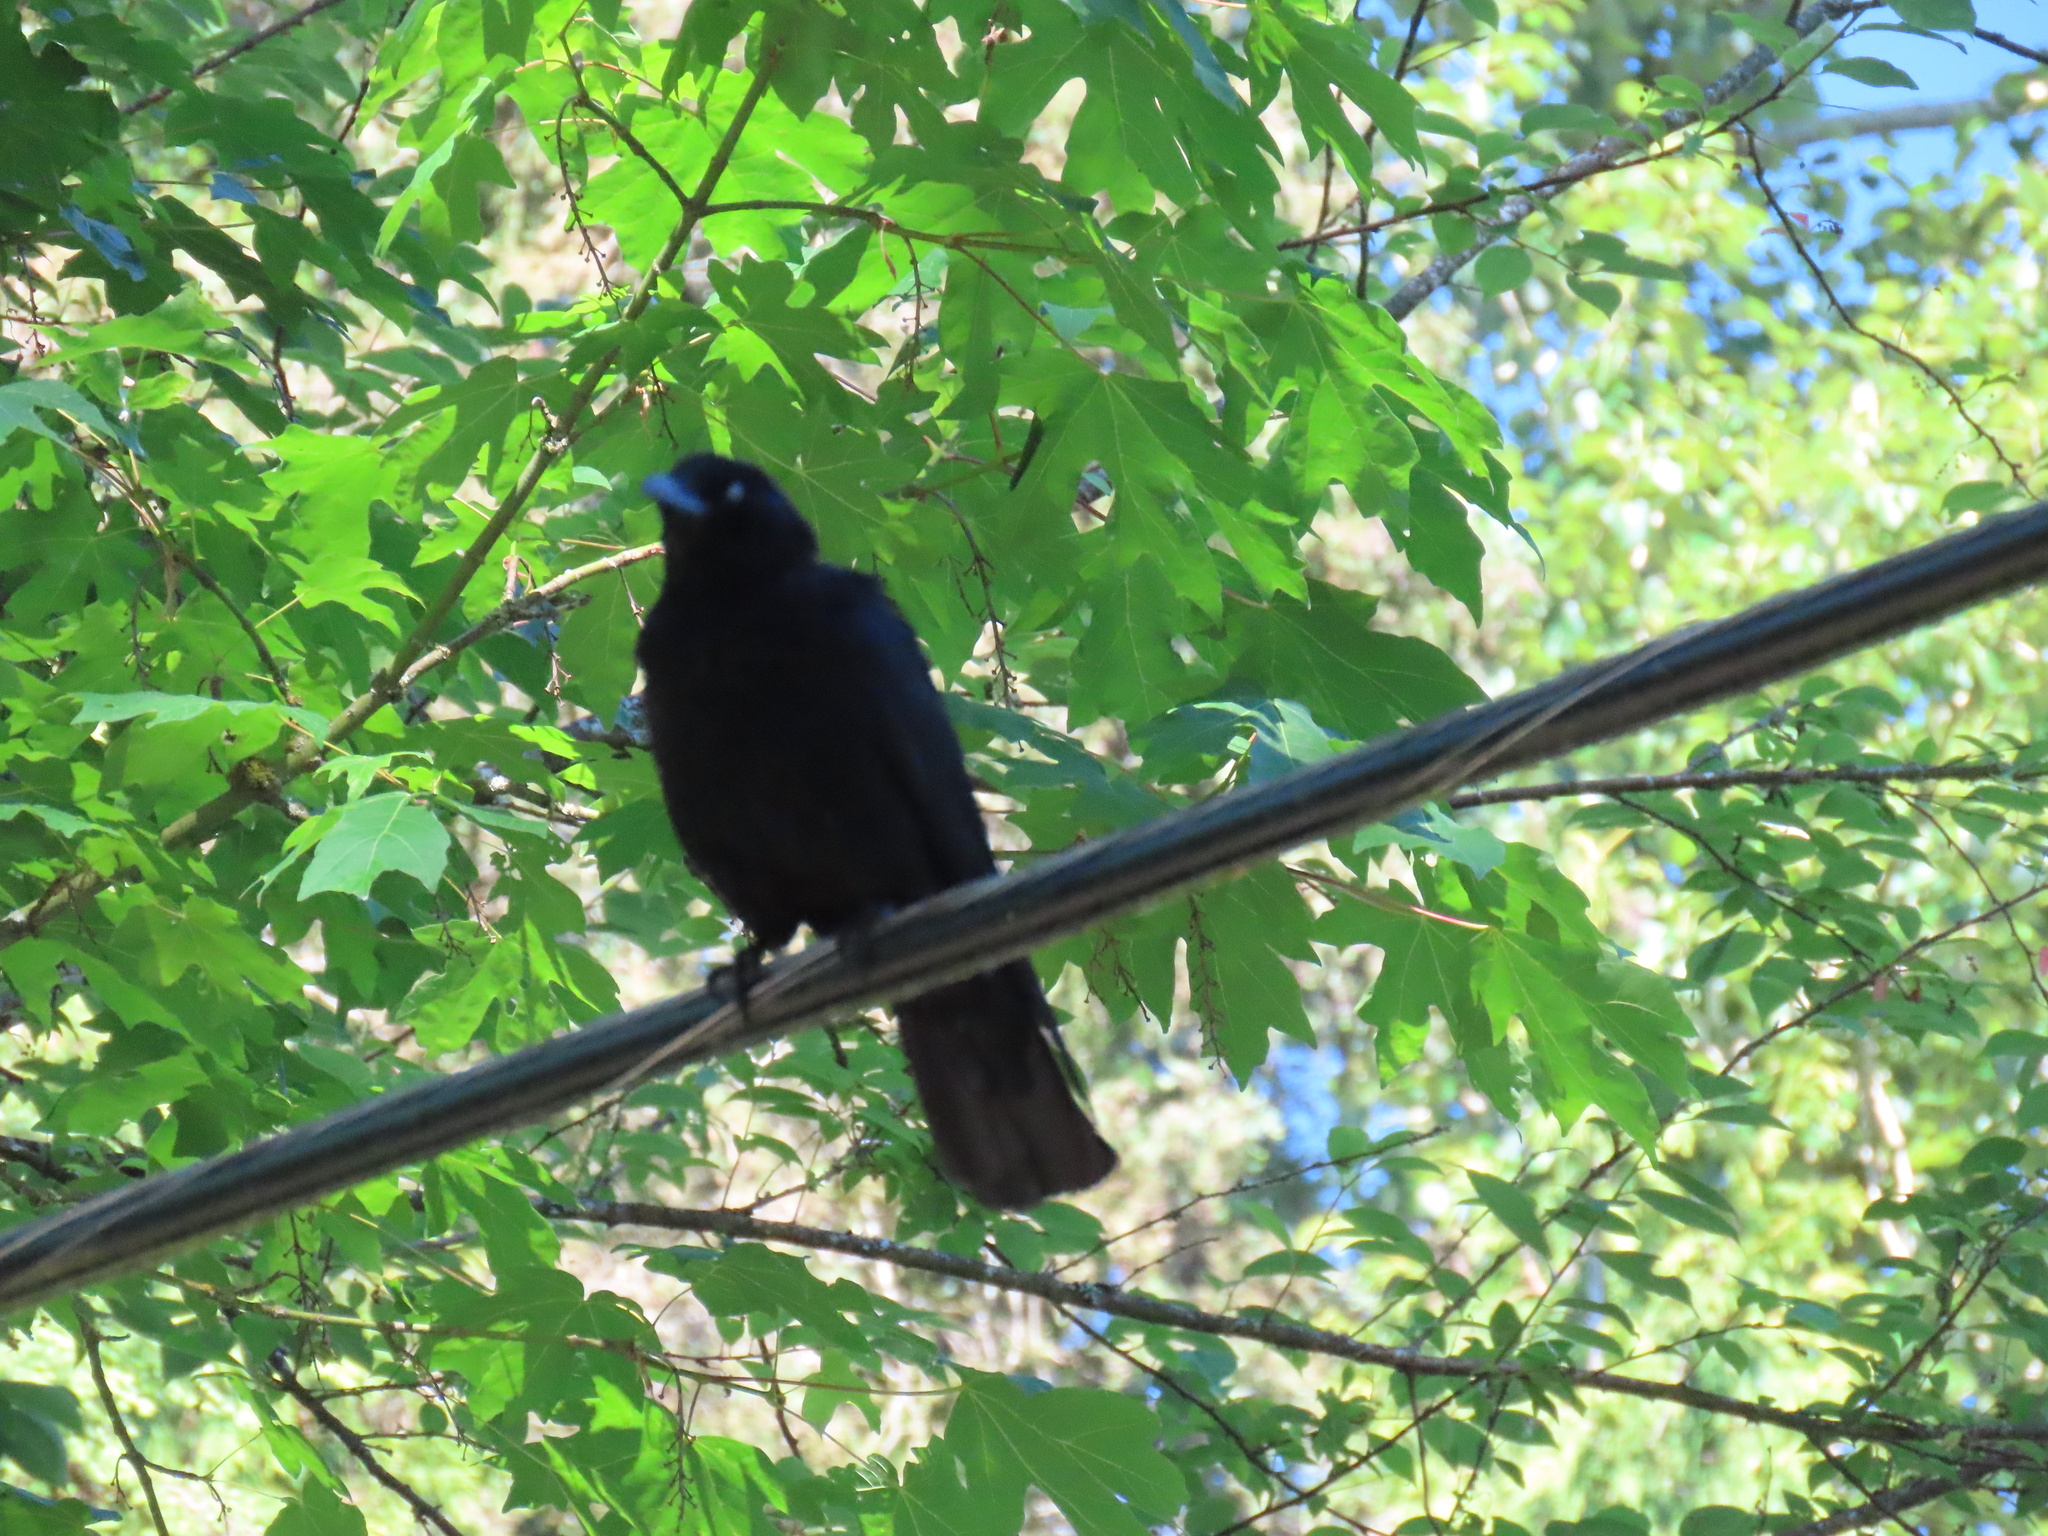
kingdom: Animalia
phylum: Chordata
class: Aves
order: Passeriformes
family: Corvidae
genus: Corvus
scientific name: Corvus brachyrhynchos
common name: American crow
